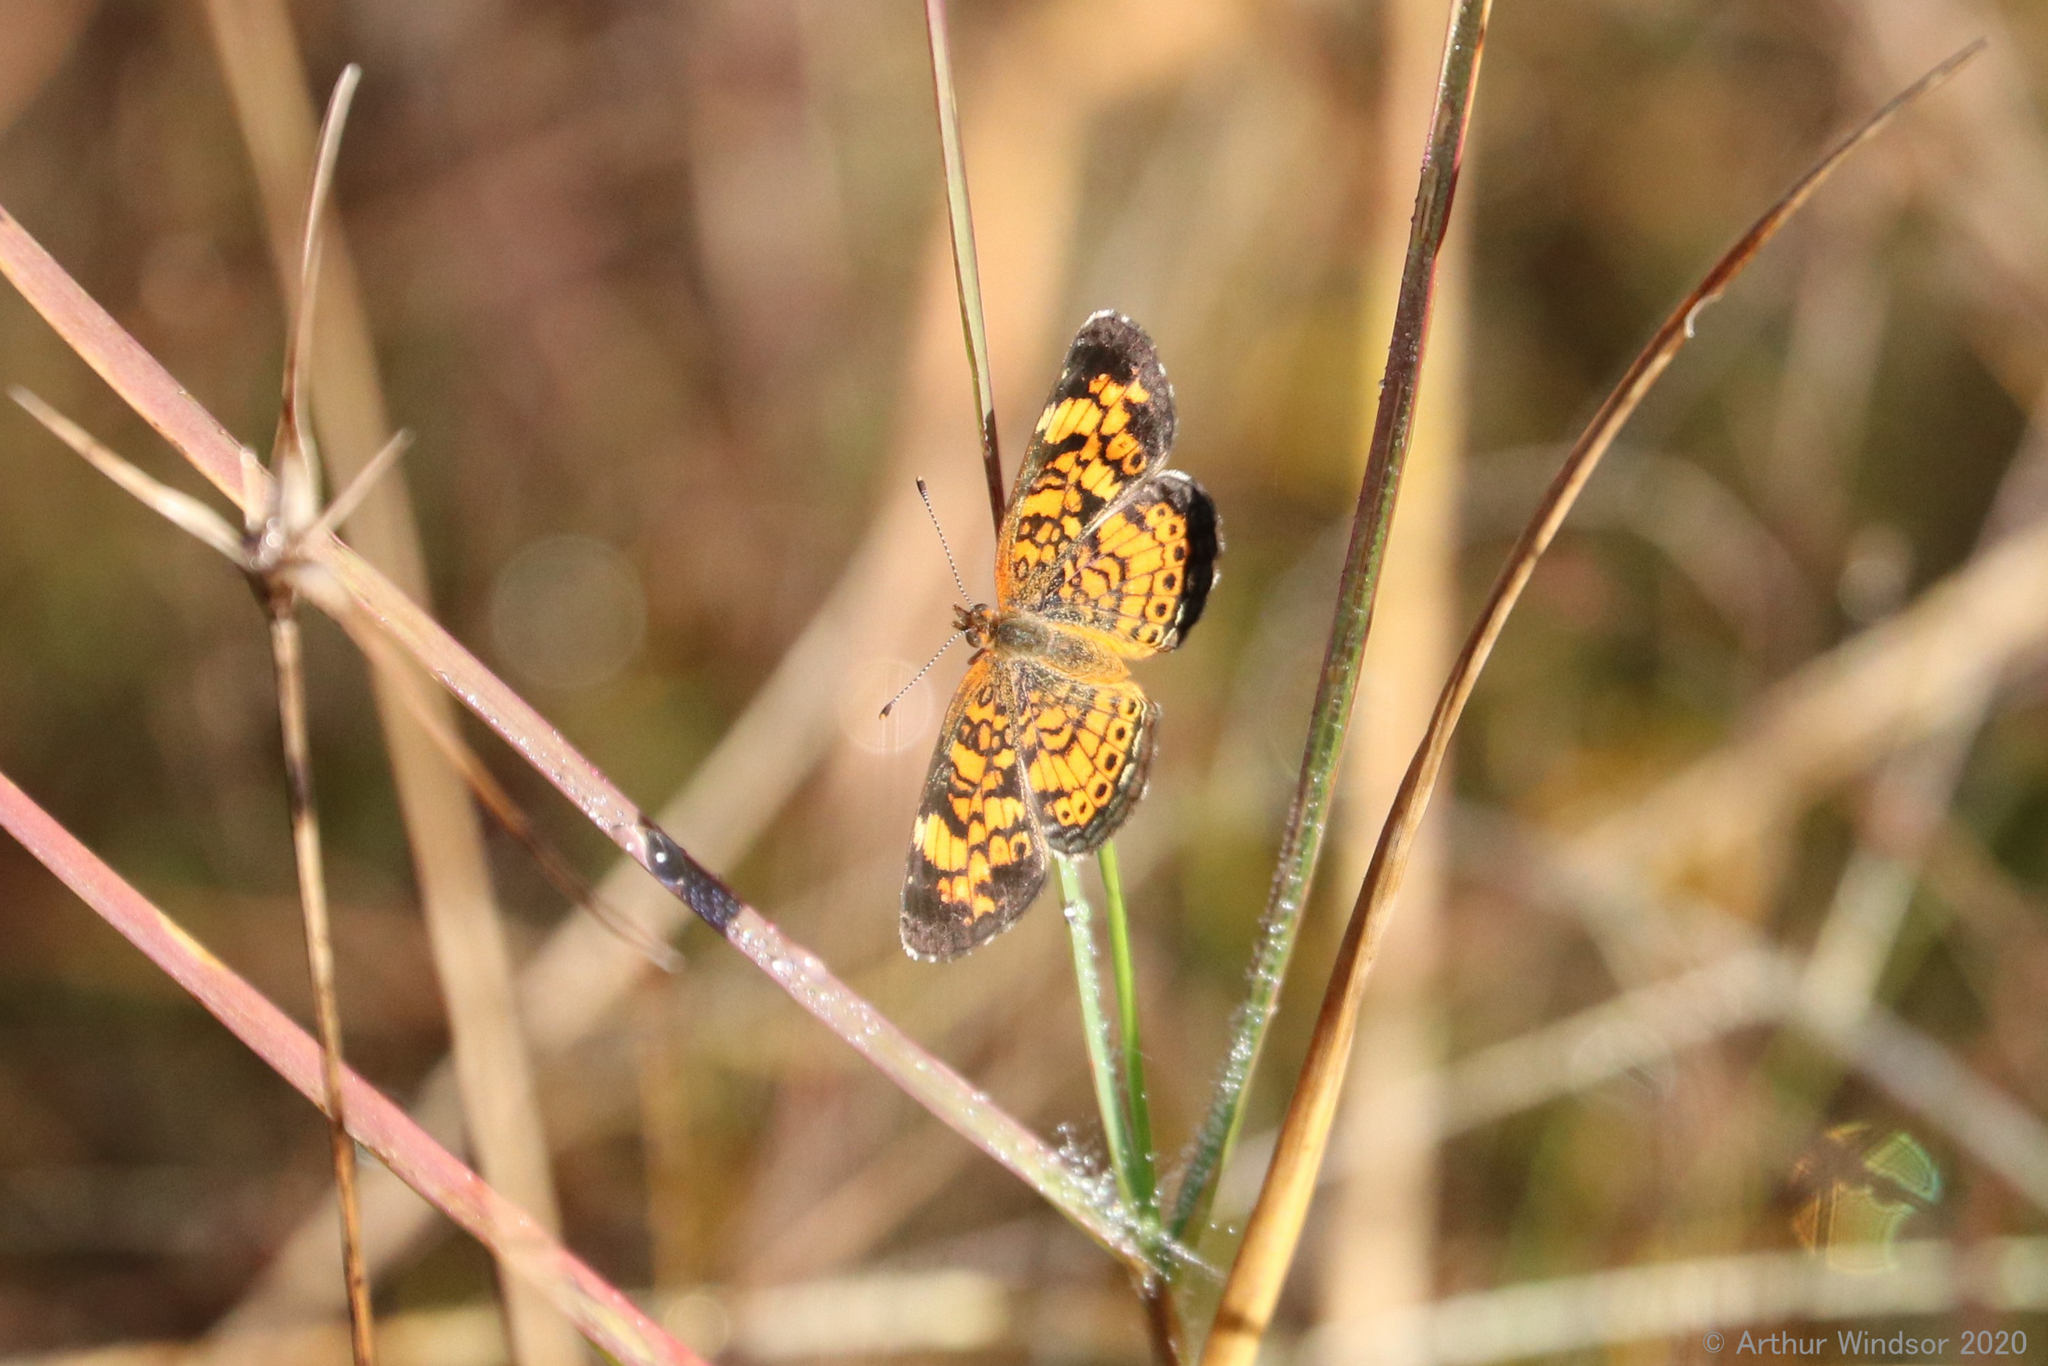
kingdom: Animalia
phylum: Arthropoda
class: Insecta
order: Lepidoptera
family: Nymphalidae
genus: Phyciodes
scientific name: Phyciodes tharos
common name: Pearl crescent
